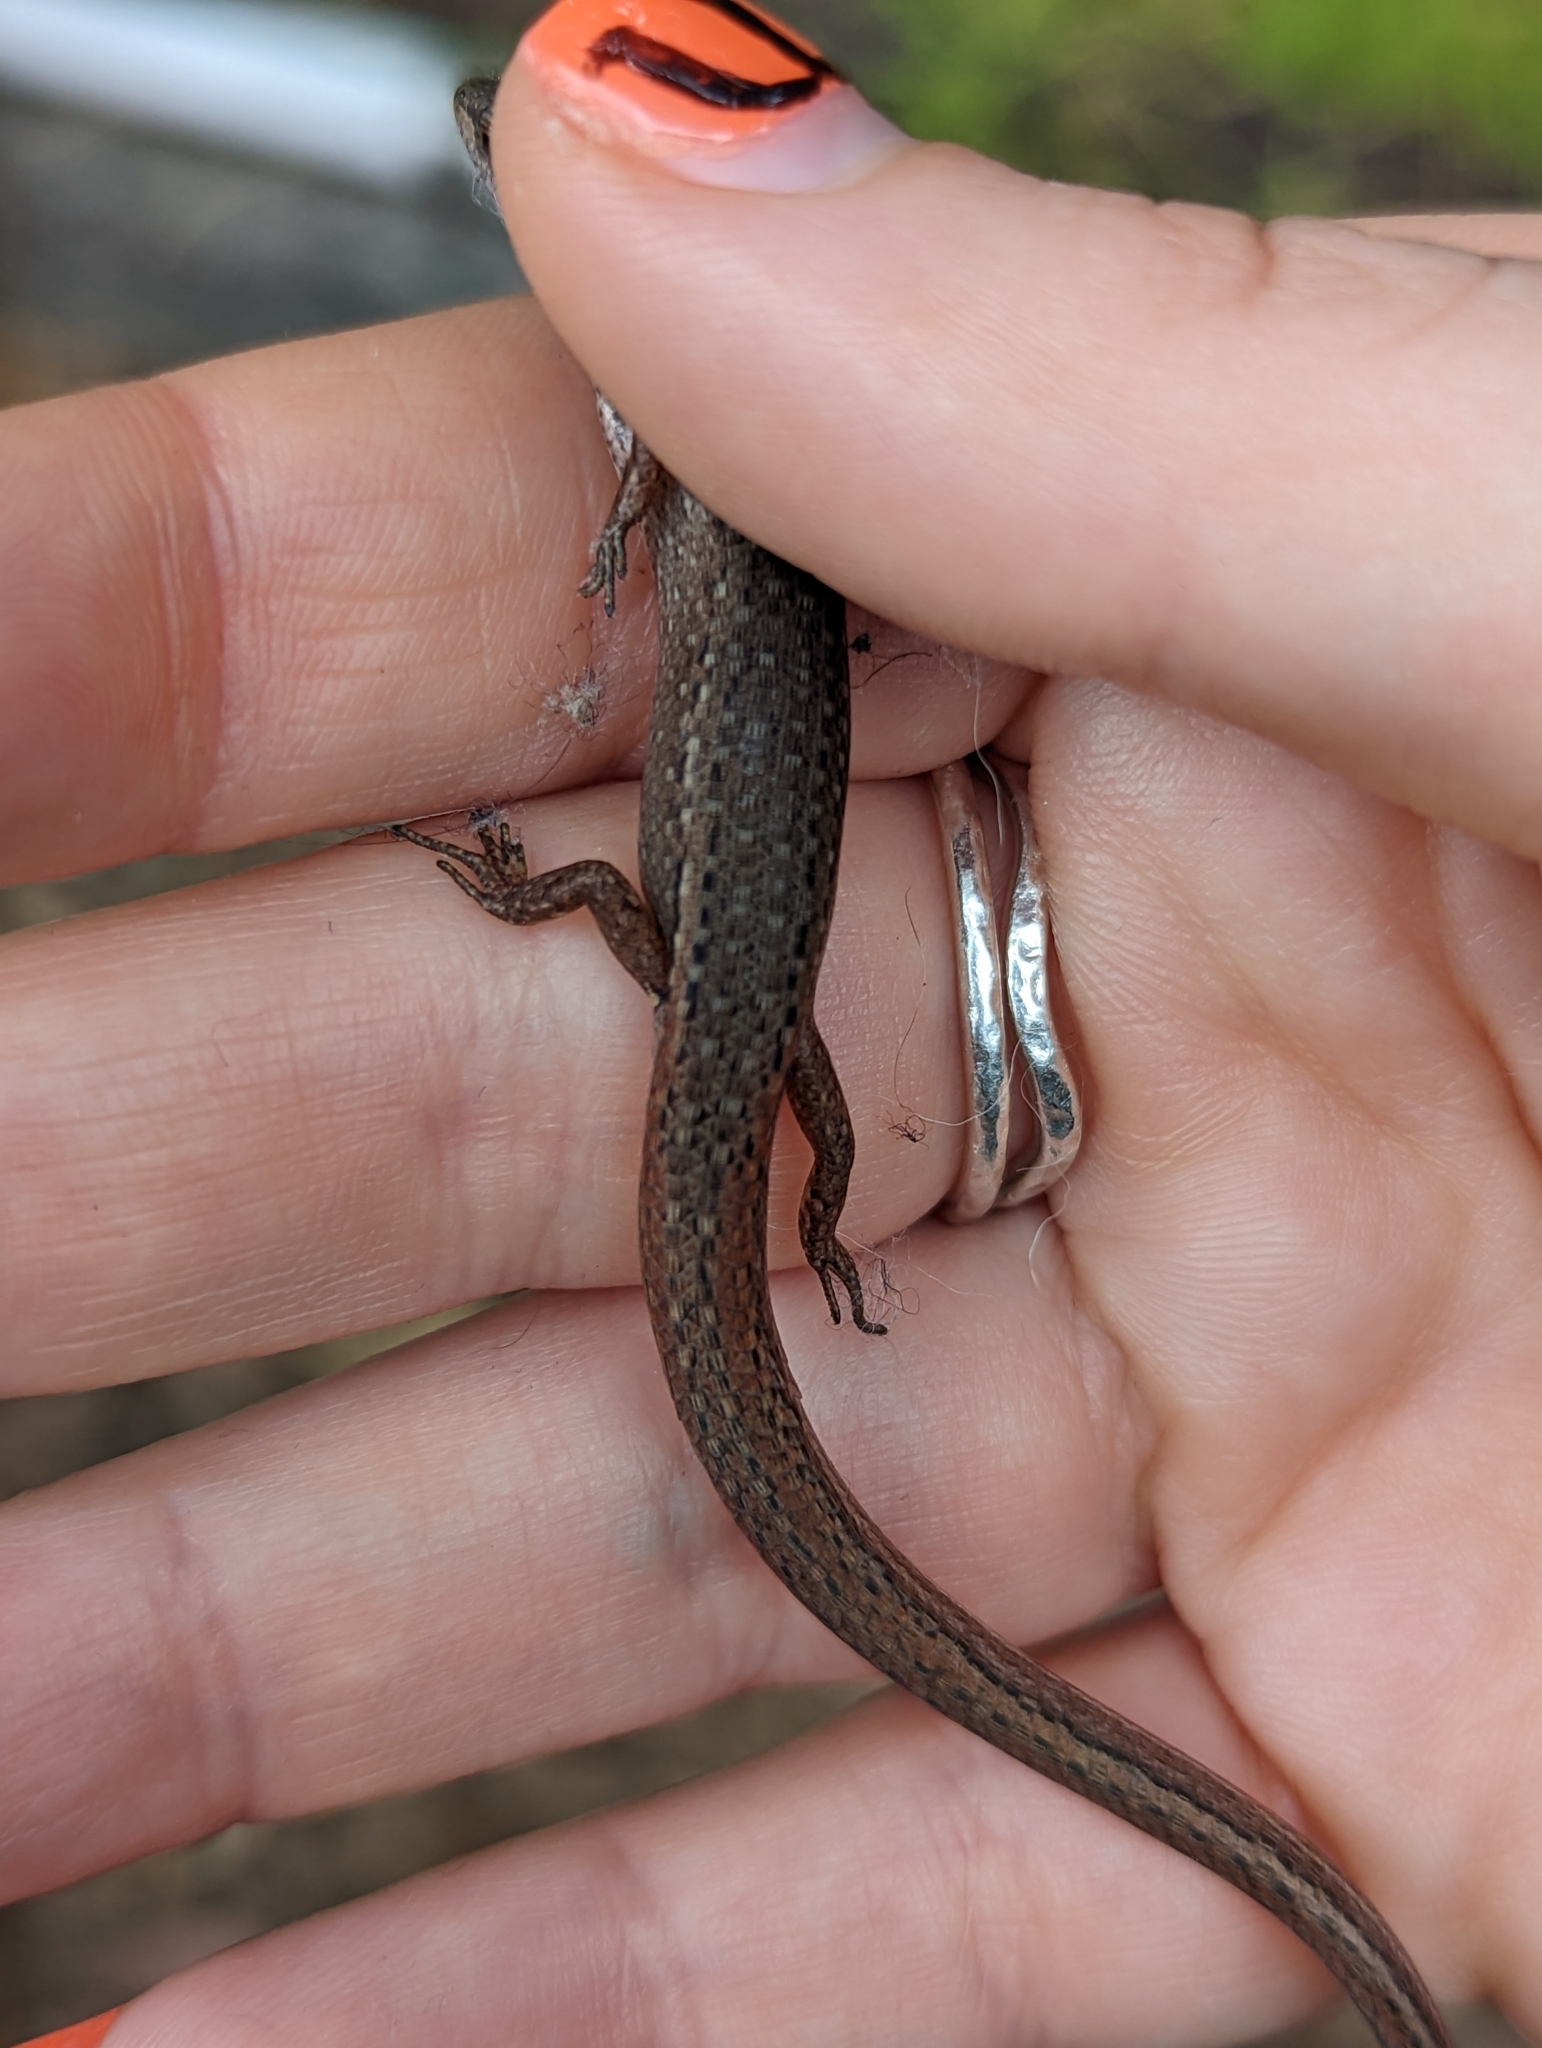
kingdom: Animalia
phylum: Chordata
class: Squamata
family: Scincidae
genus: Saproscincus
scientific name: Saproscincus mustelinus
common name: Southern weasel skink
